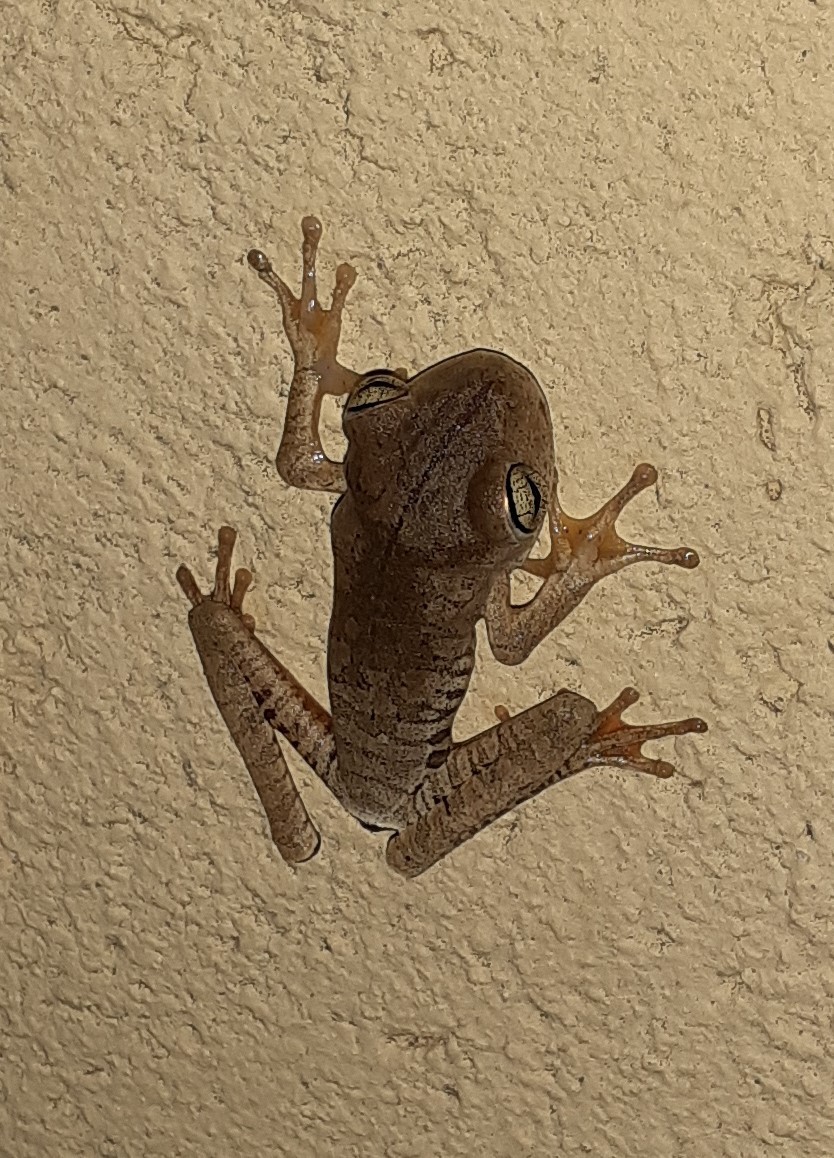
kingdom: Animalia
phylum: Chordata
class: Amphibia
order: Anura
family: Hylidae
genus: Boana
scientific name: Boana faber
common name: Blacksmith tree frog
